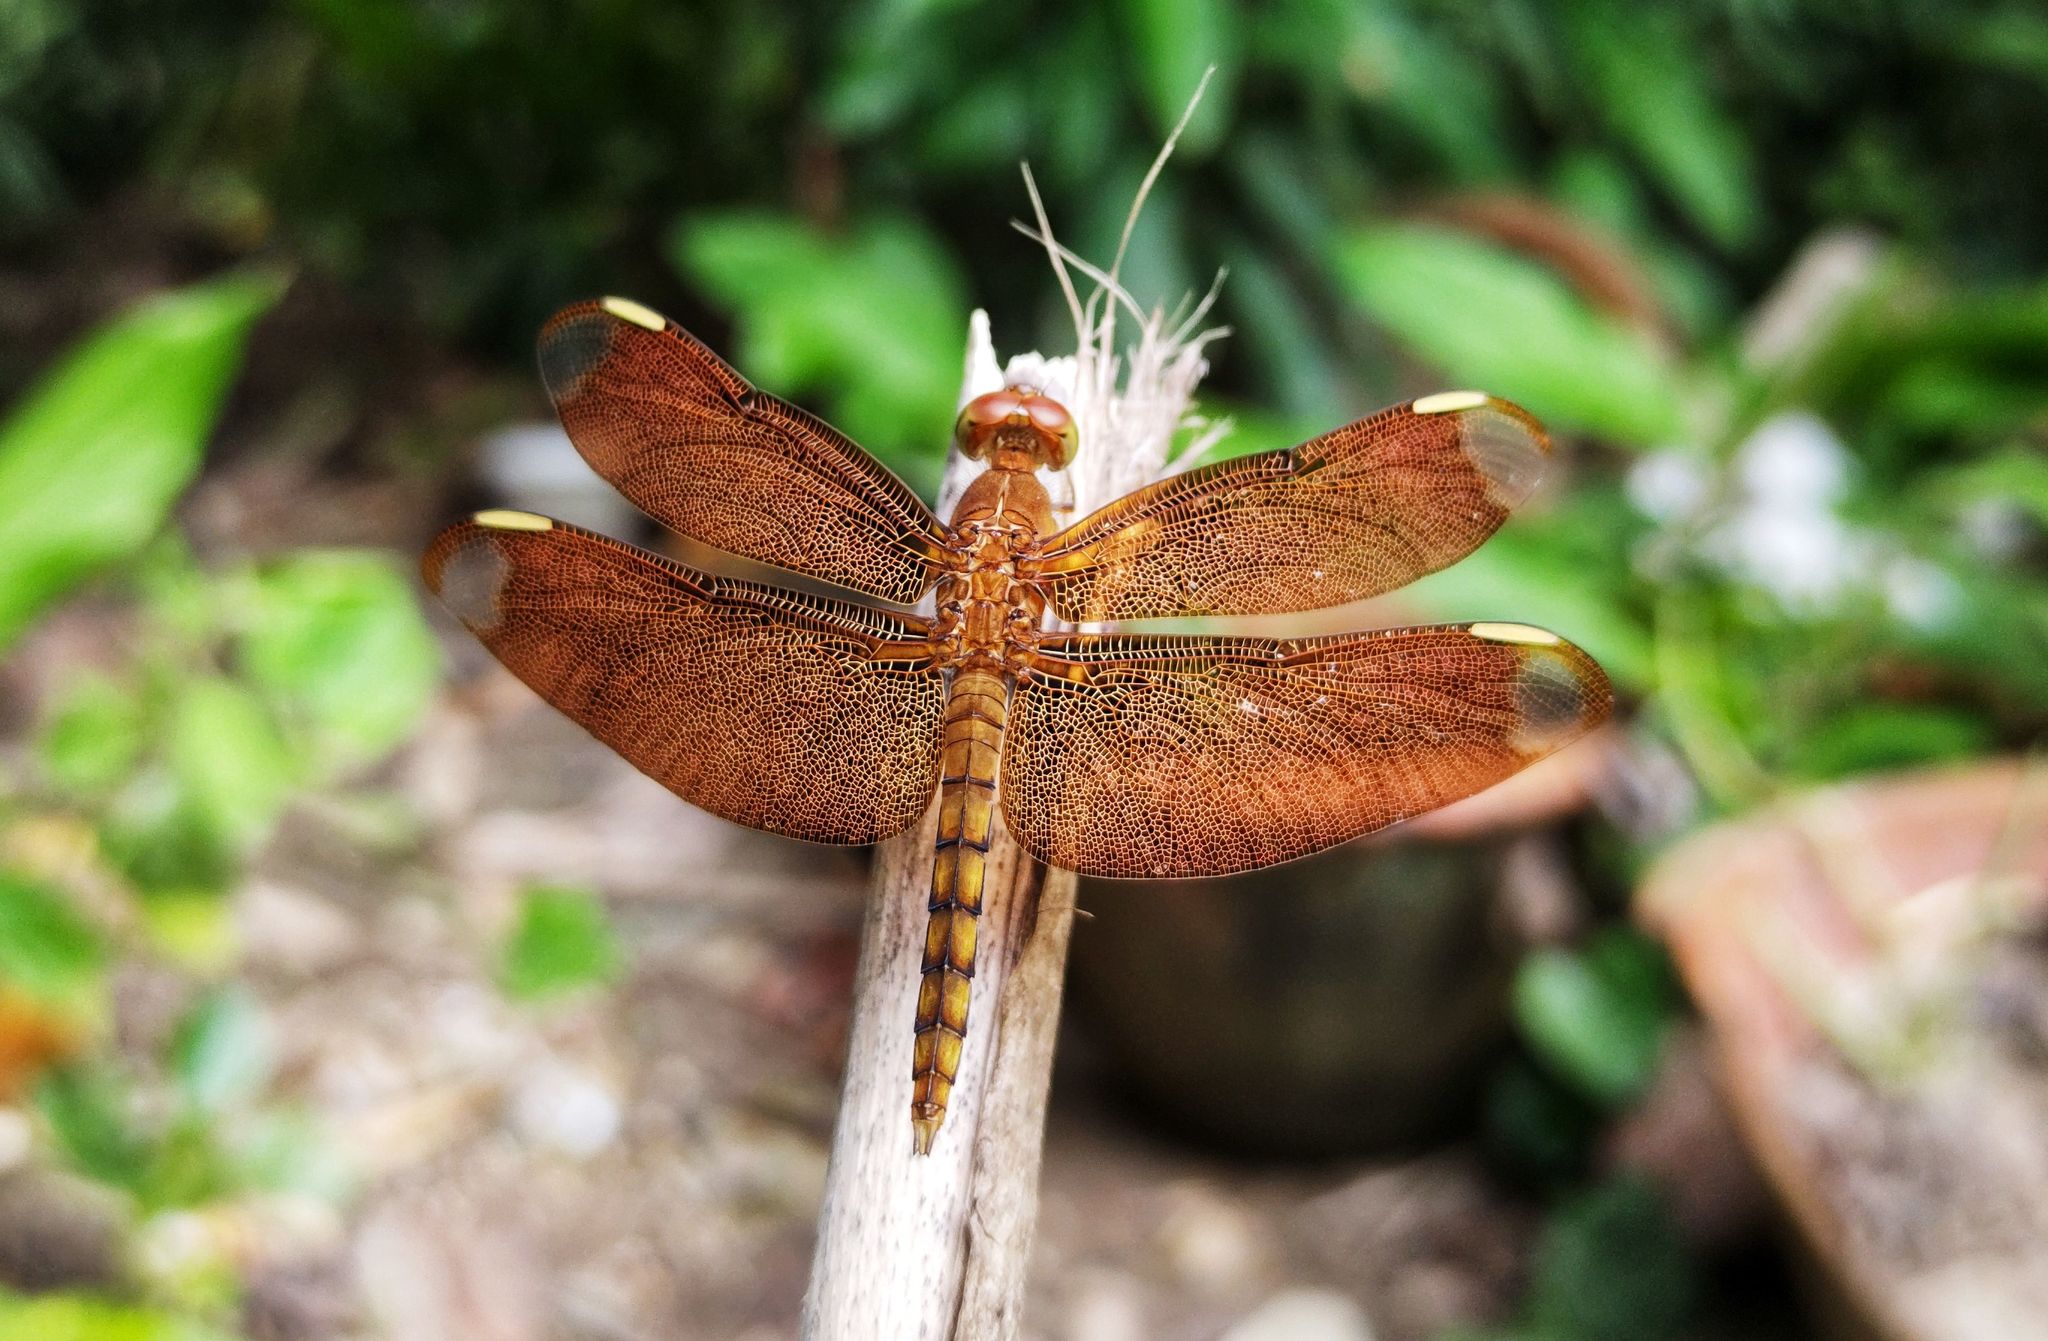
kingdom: Animalia
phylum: Arthropoda
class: Insecta
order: Odonata
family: Libellulidae
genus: Neurothemis
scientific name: Neurothemis fulvia
